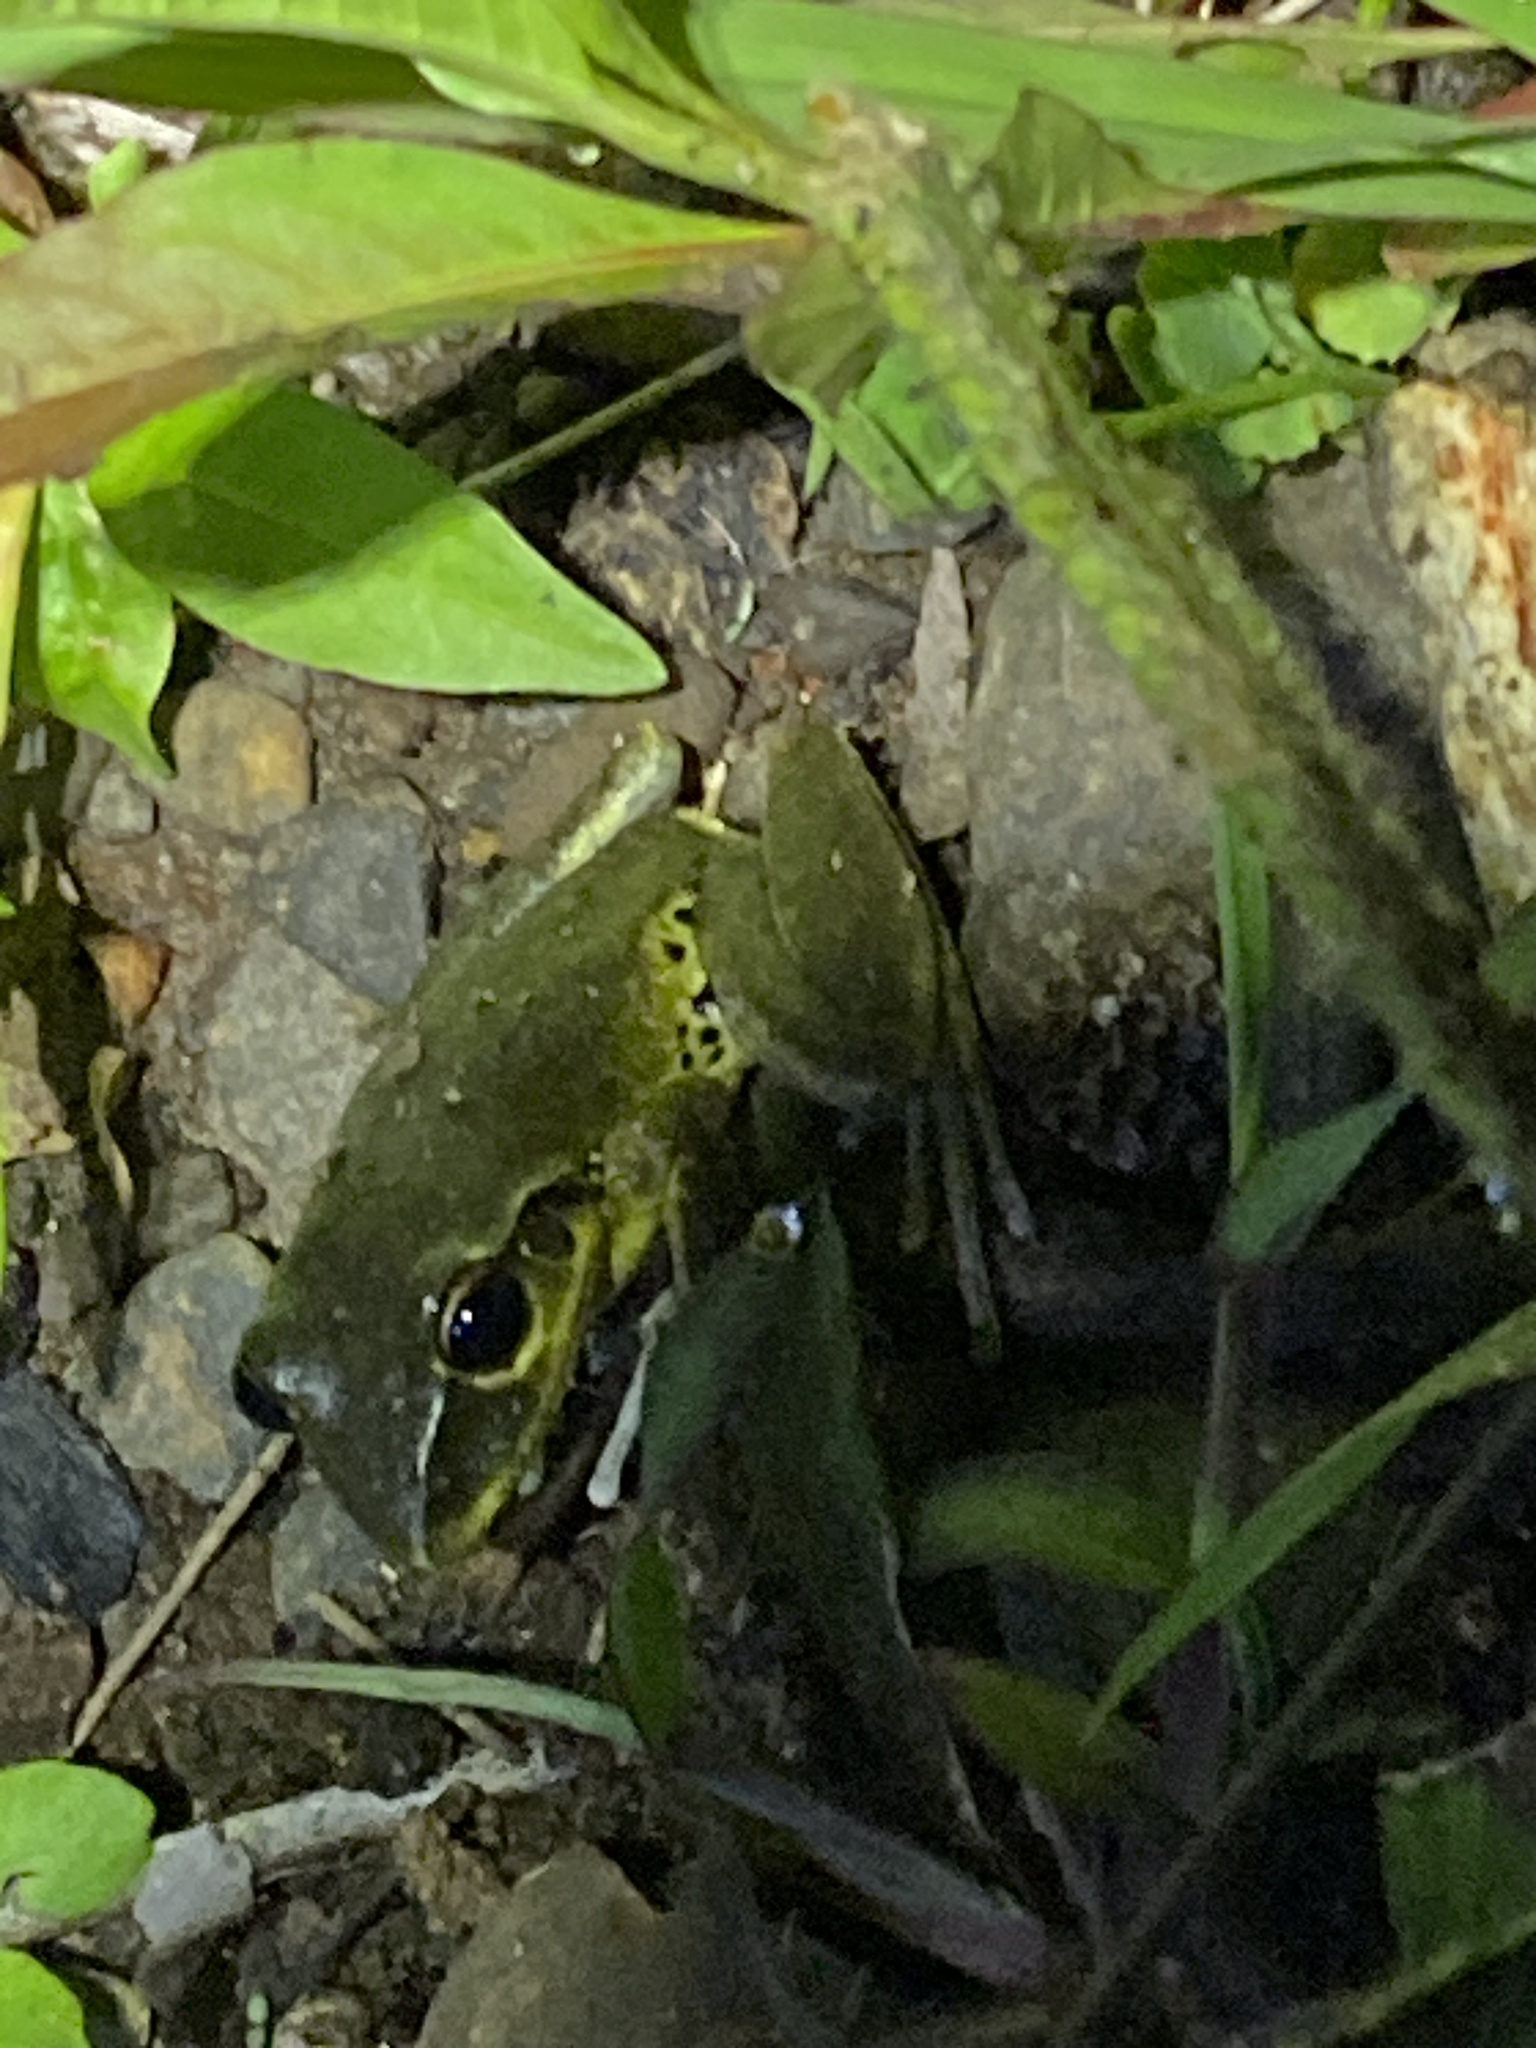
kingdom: Animalia
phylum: Chordata
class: Amphibia
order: Anura
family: Pelodryadidae
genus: Ranoidea
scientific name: Ranoidea wilcoxii
